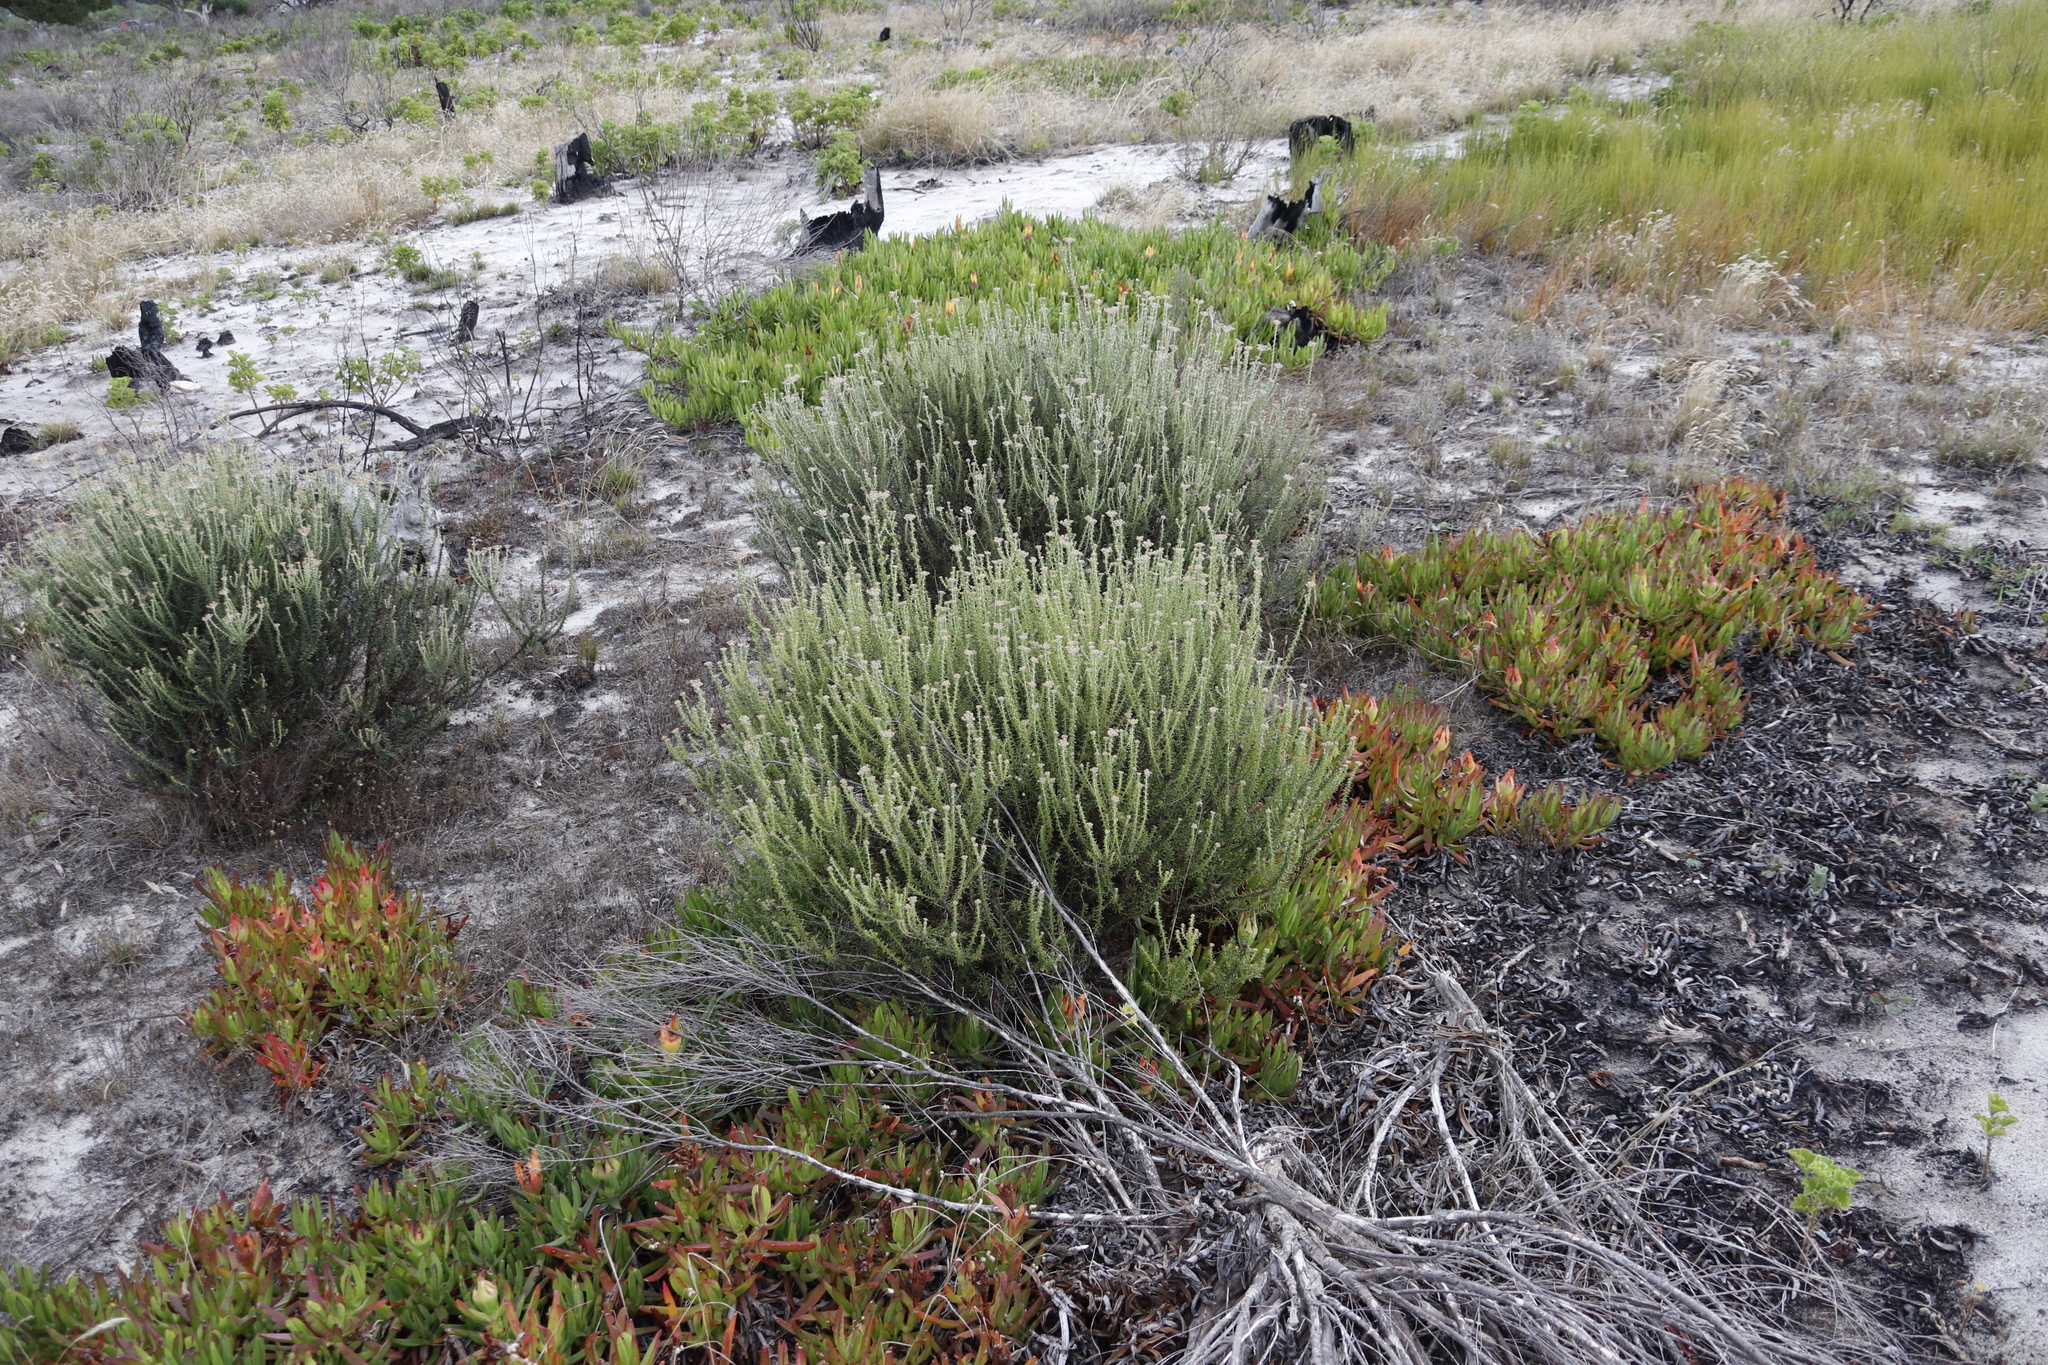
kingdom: Plantae
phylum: Tracheophyta
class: Magnoliopsida
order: Asterales
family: Asteraceae
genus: Metalasia
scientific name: Metalasia densa
